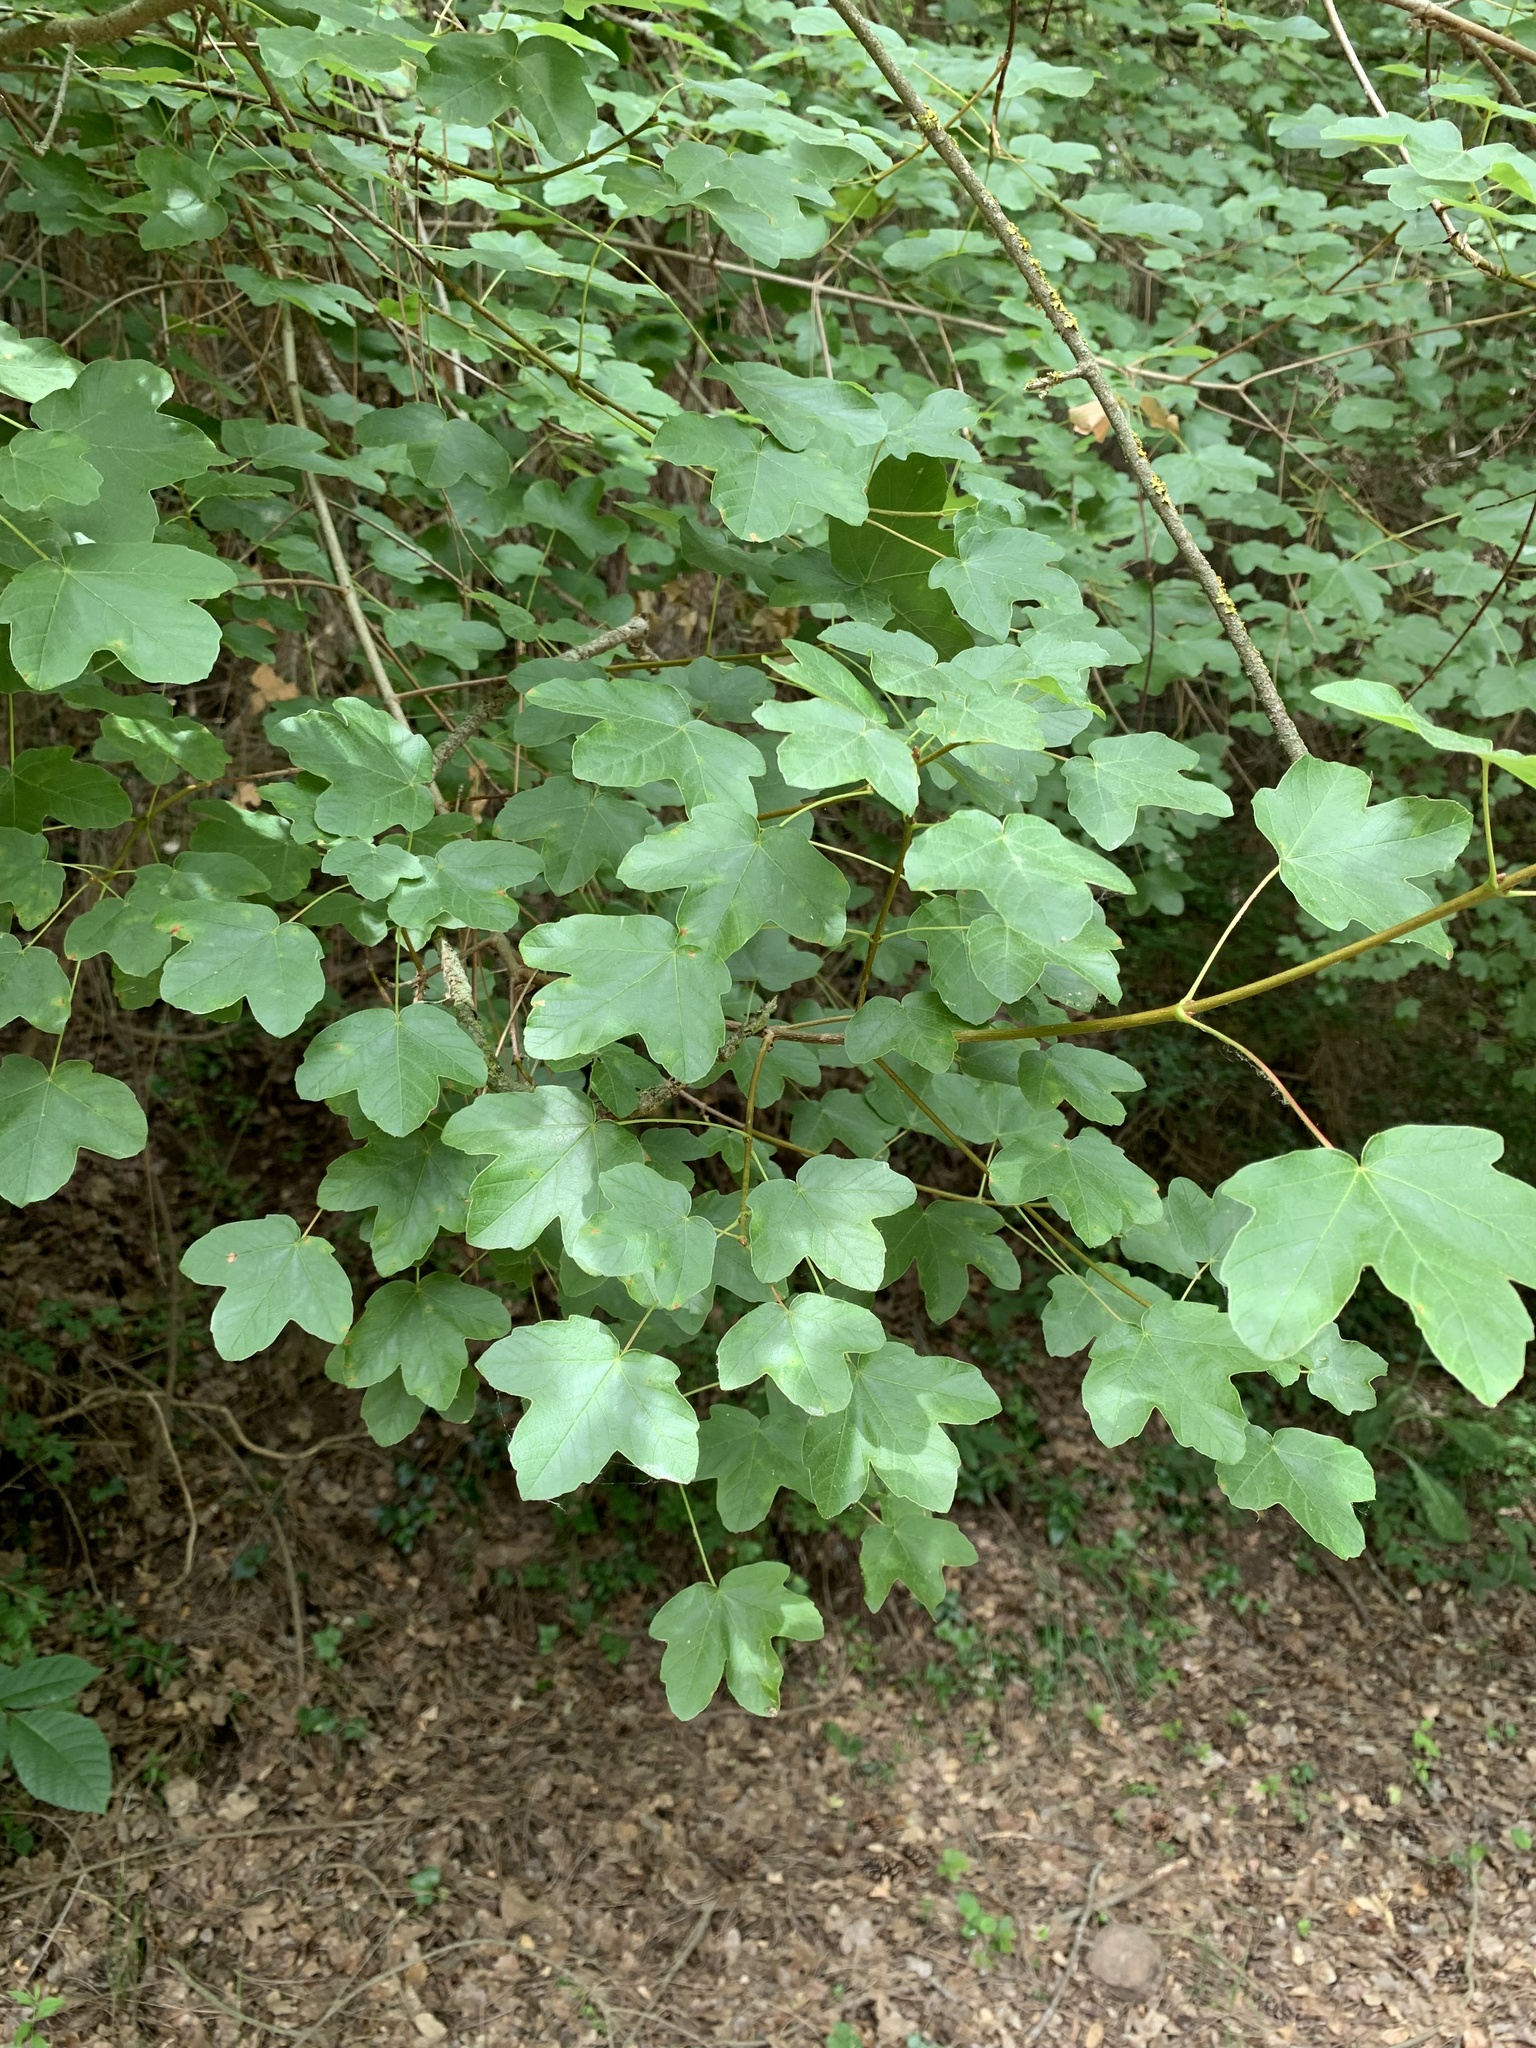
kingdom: Plantae
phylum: Tracheophyta
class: Magnoliopsida
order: Sapindales
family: Sapindaceae
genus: Acer
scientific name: Acer campestre
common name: Field maple
